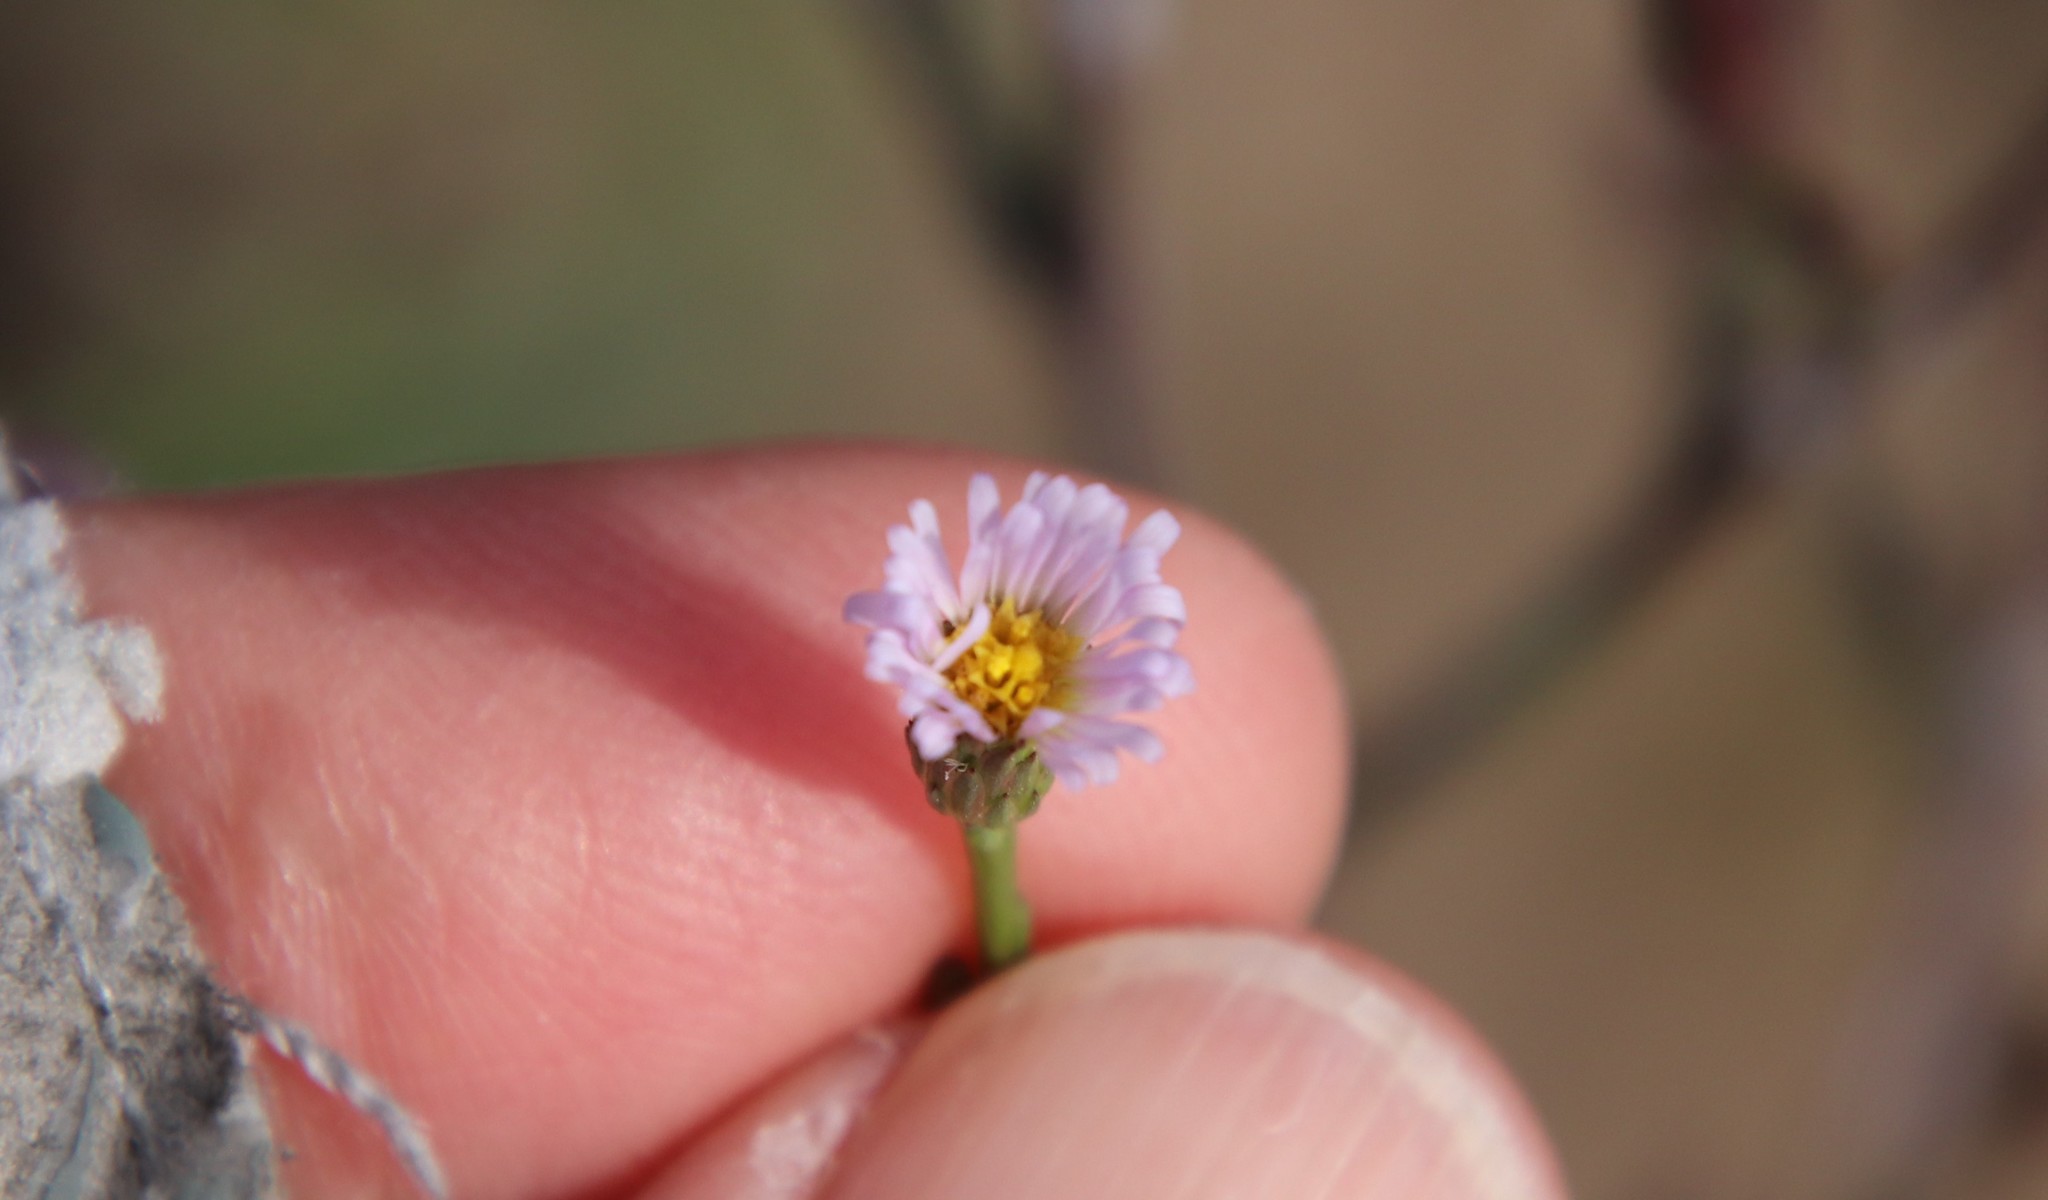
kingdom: Plantae
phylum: Tracheophyta
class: Magnoliopsida
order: Asterales
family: Asteraceae
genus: Symphyotrichum
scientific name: Symphyotrichum subulatum
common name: Annual saltmarsh aster
